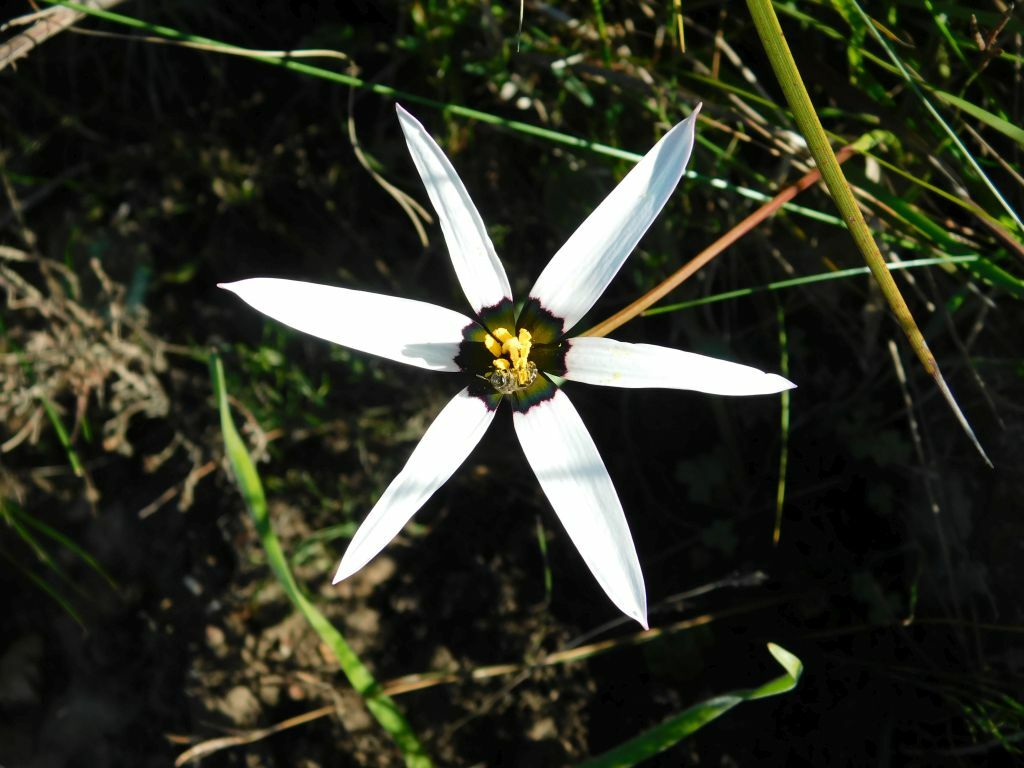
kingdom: Plantae
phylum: Tracheophyta
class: Liliopsida
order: Asparagales
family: Hypoxidaceae
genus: Pauridia
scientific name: Pauridia capensis
